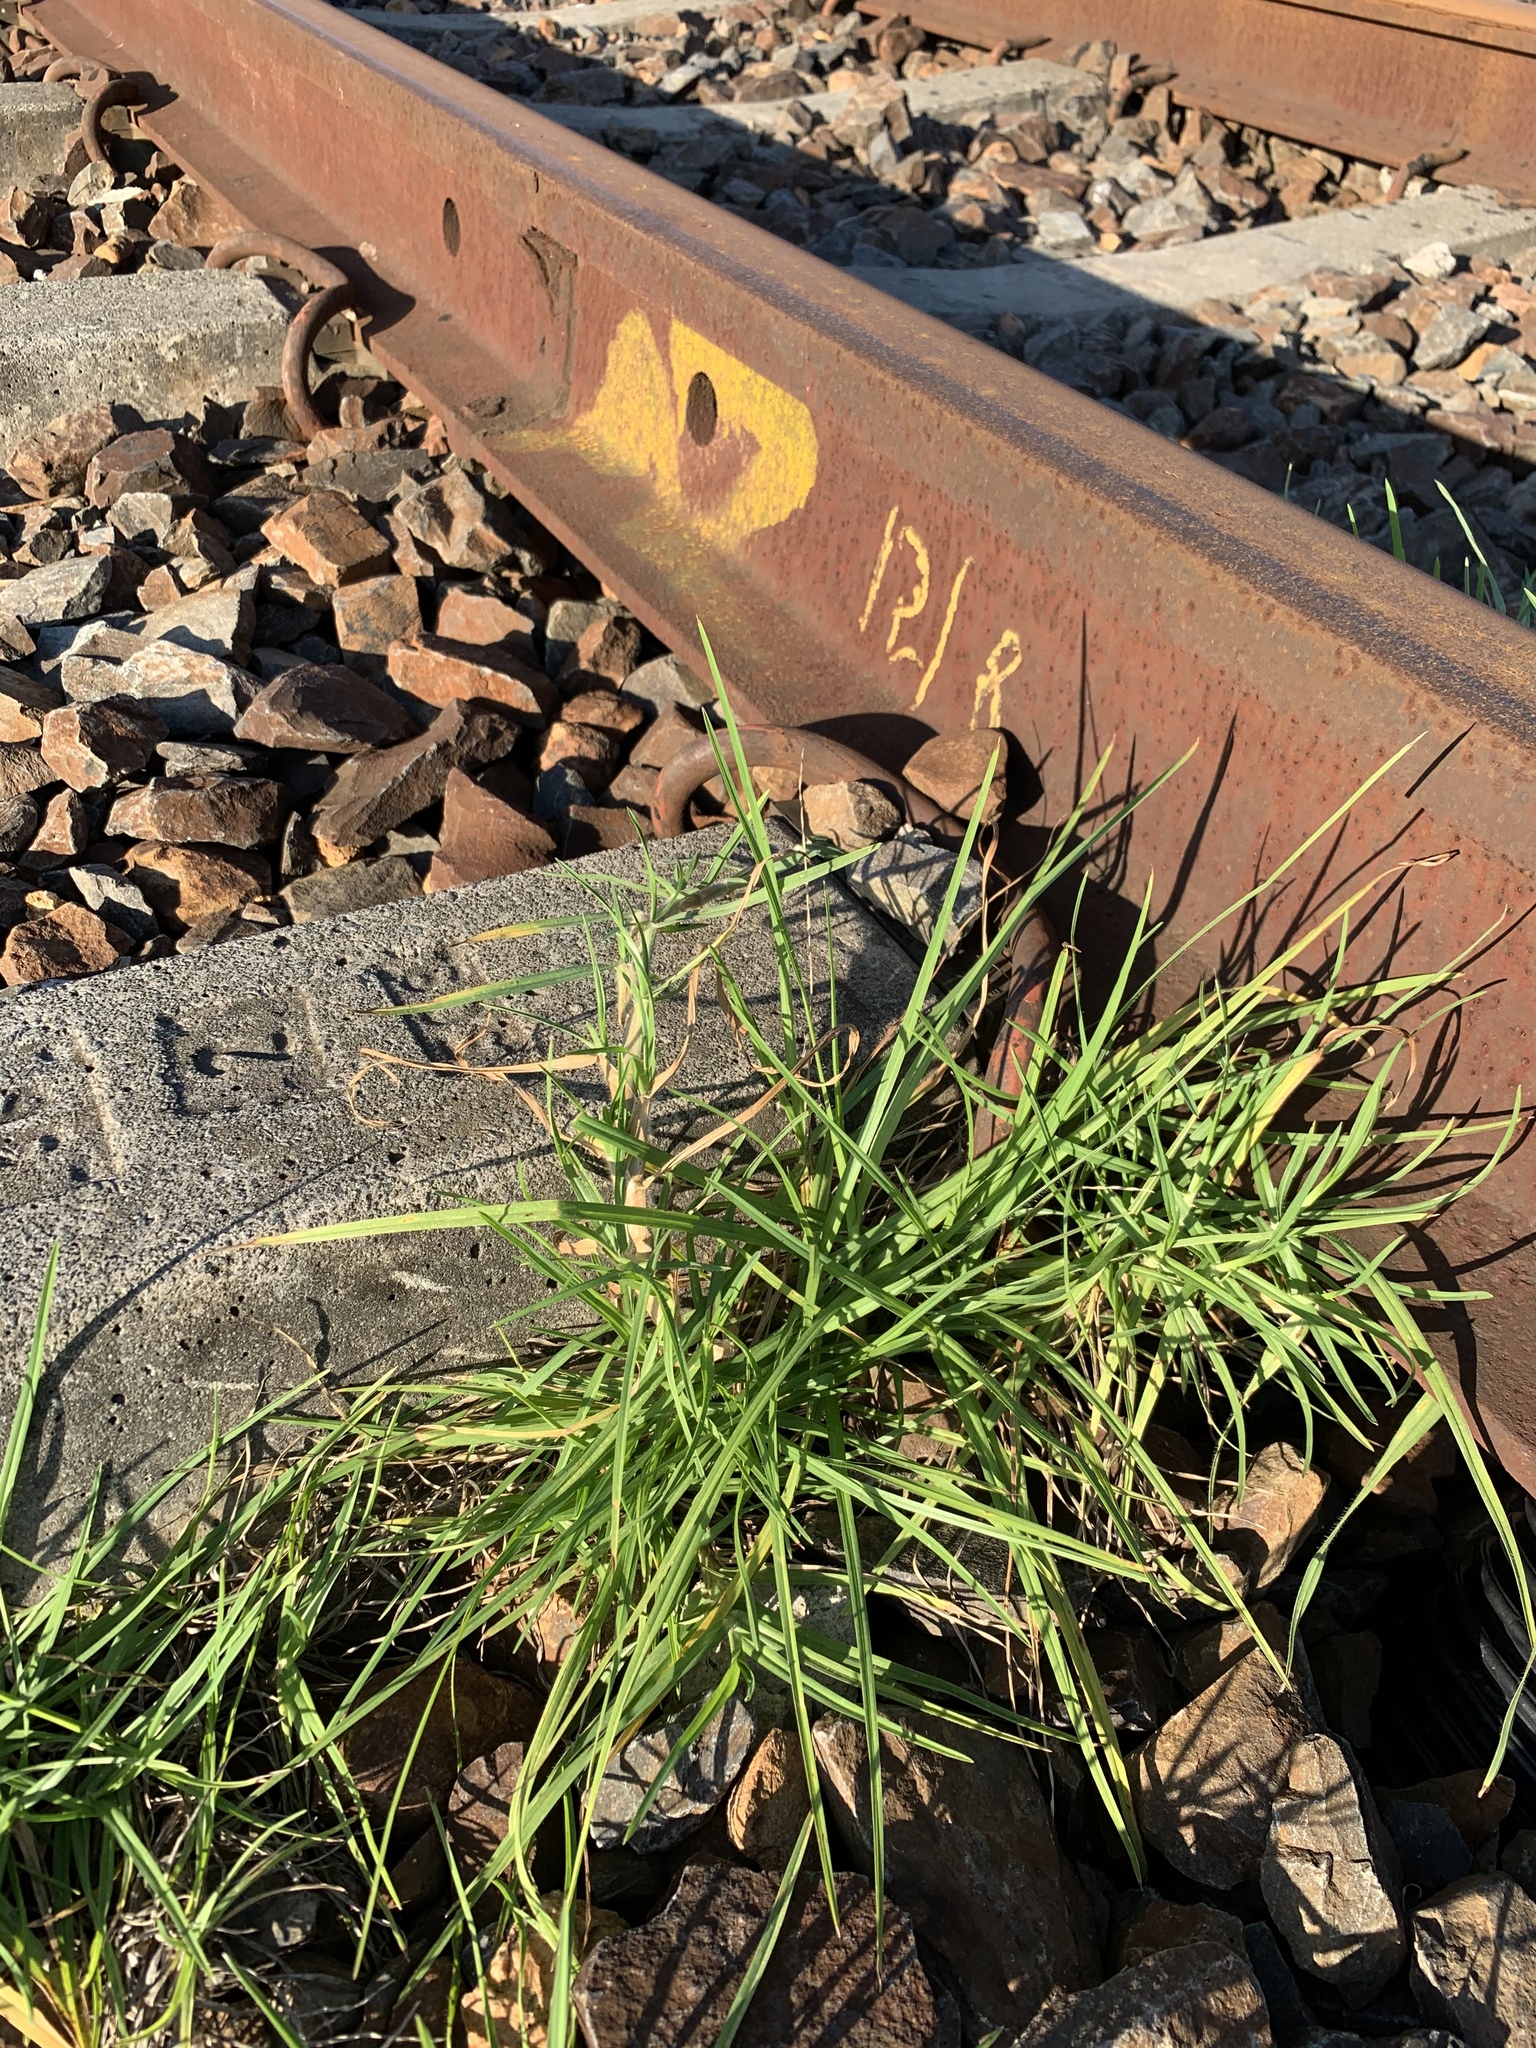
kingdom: Plantae
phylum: Tracheophyta
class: Liliopsida
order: Poales
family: Poaceae
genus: Cenchrus
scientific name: Cenchrus clandestinus
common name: Kikuyugrass
